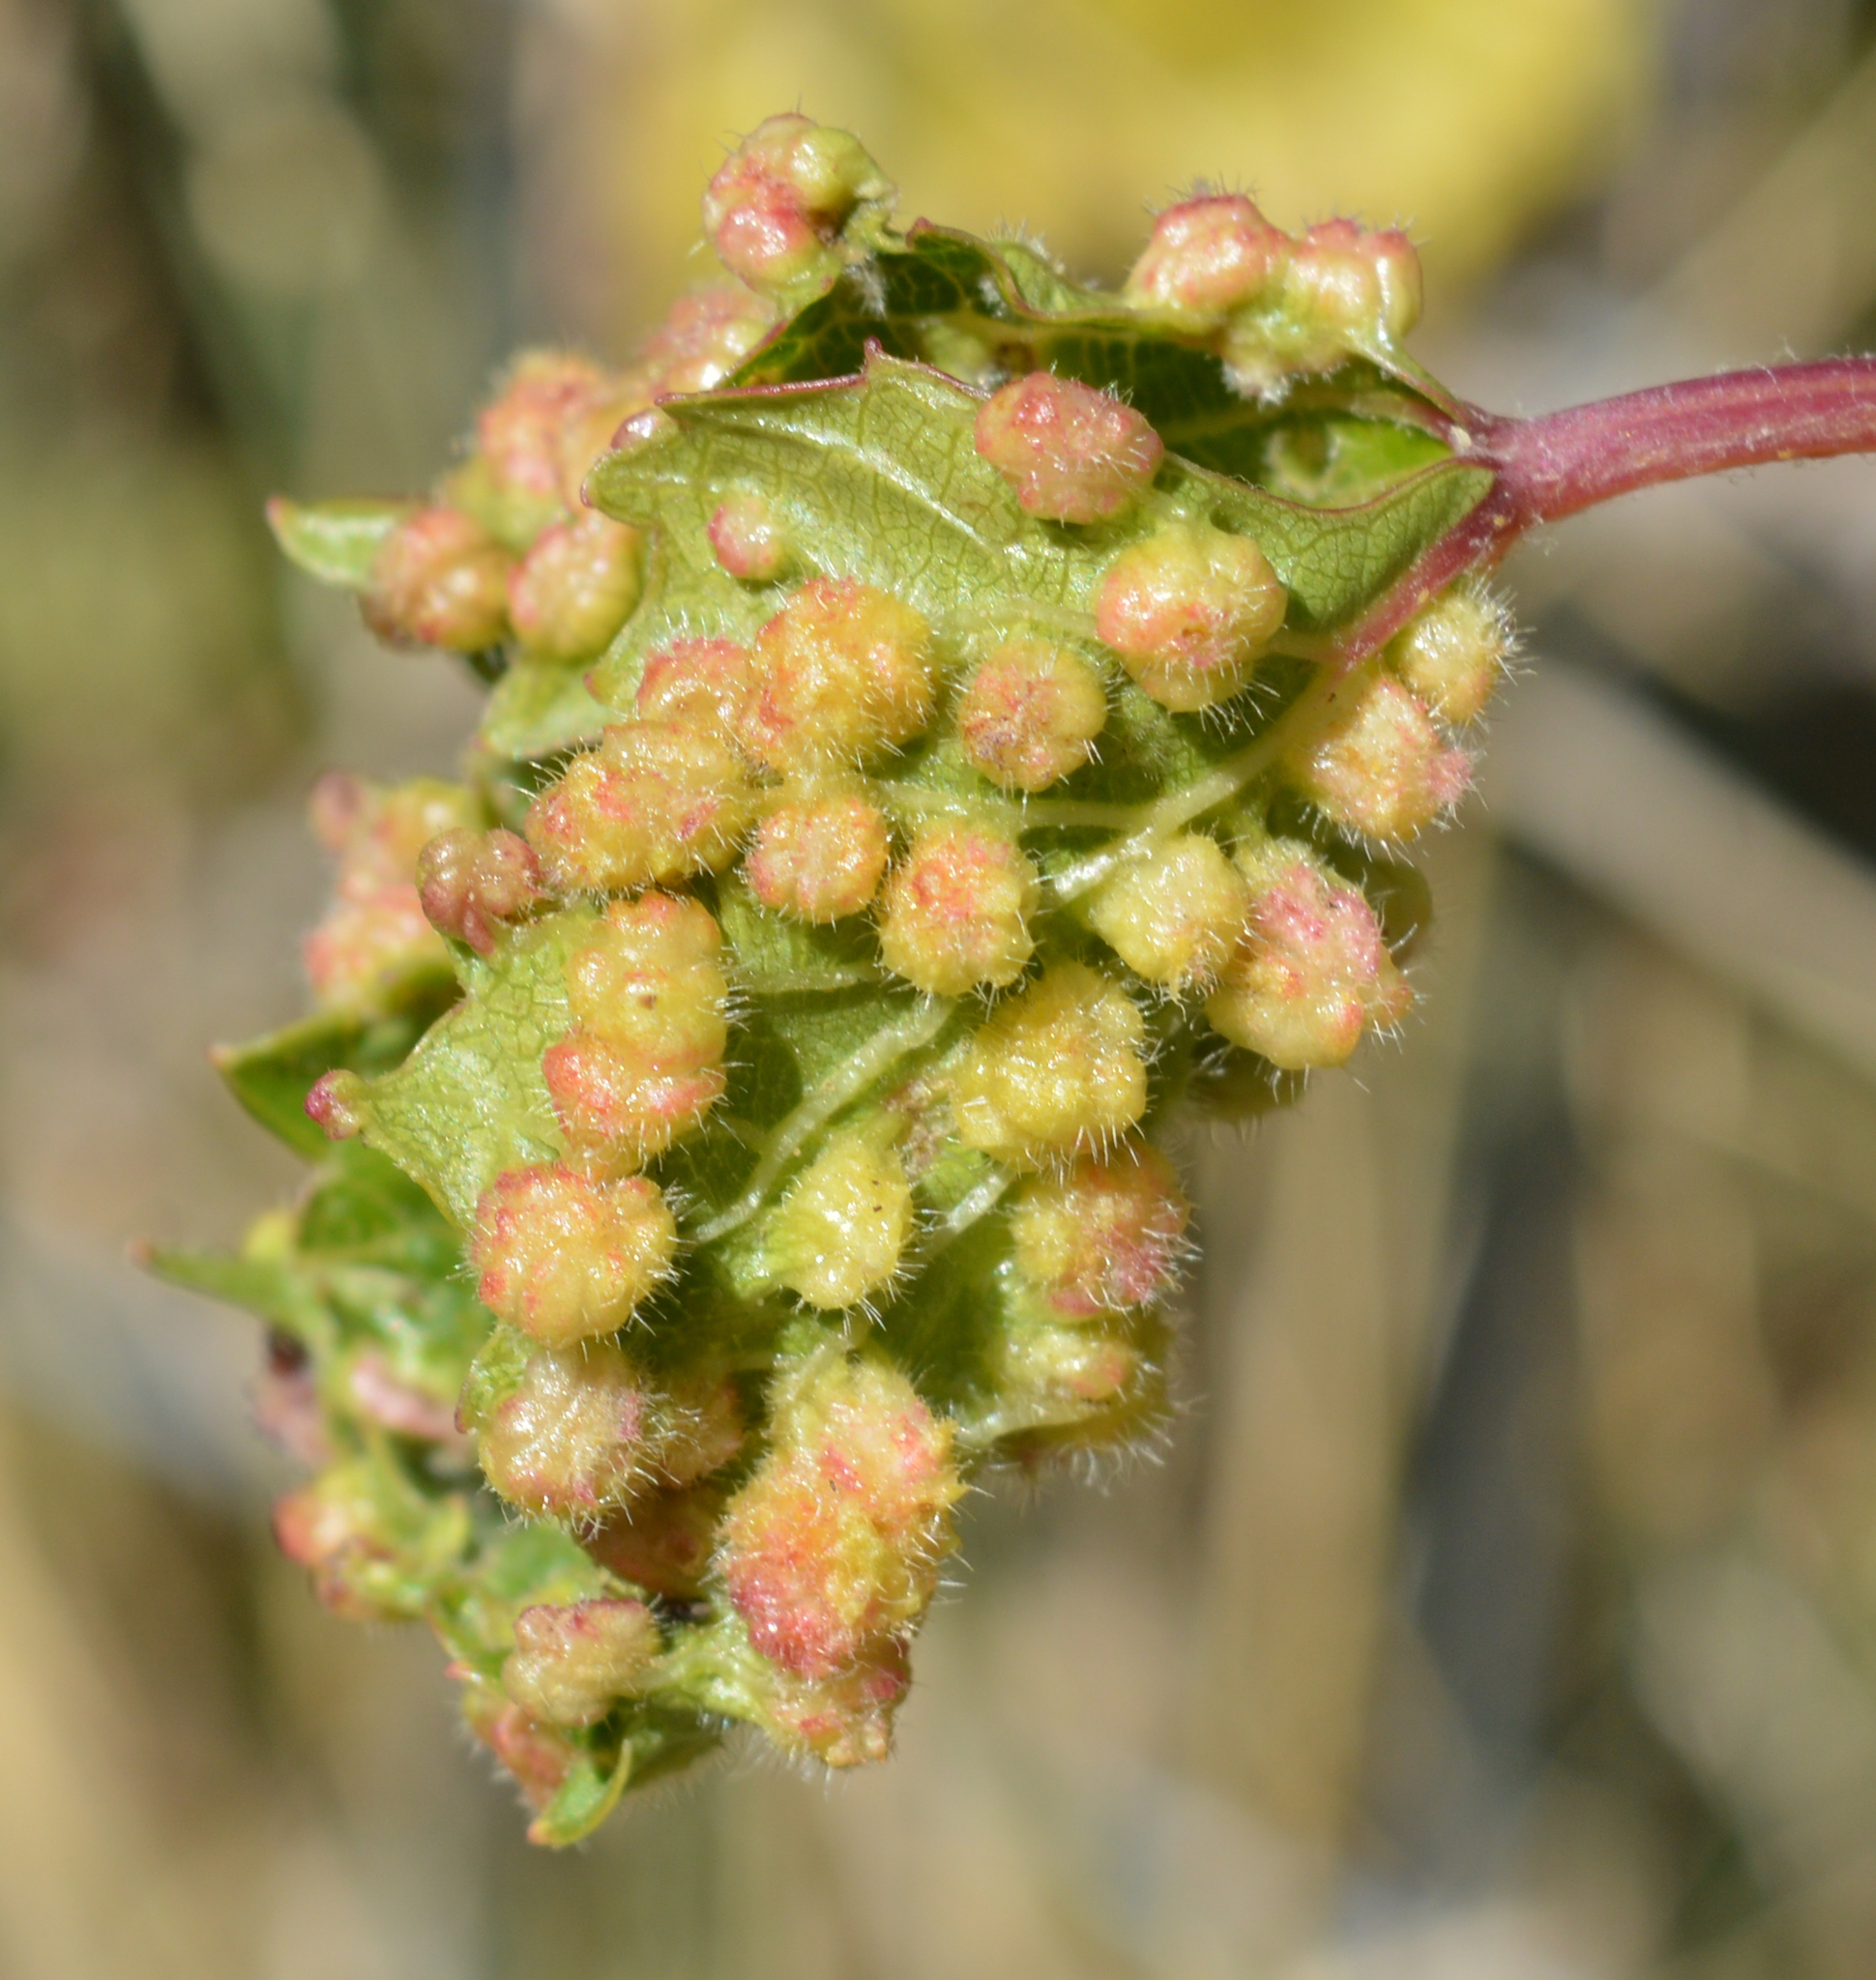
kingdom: Animalia
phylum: Arthropoda
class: Insecta
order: Hemiptera
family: Phylloxeridae
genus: Daktulosphaira
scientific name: Daktulosphaira vitifoliae
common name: Grape phylloxera
